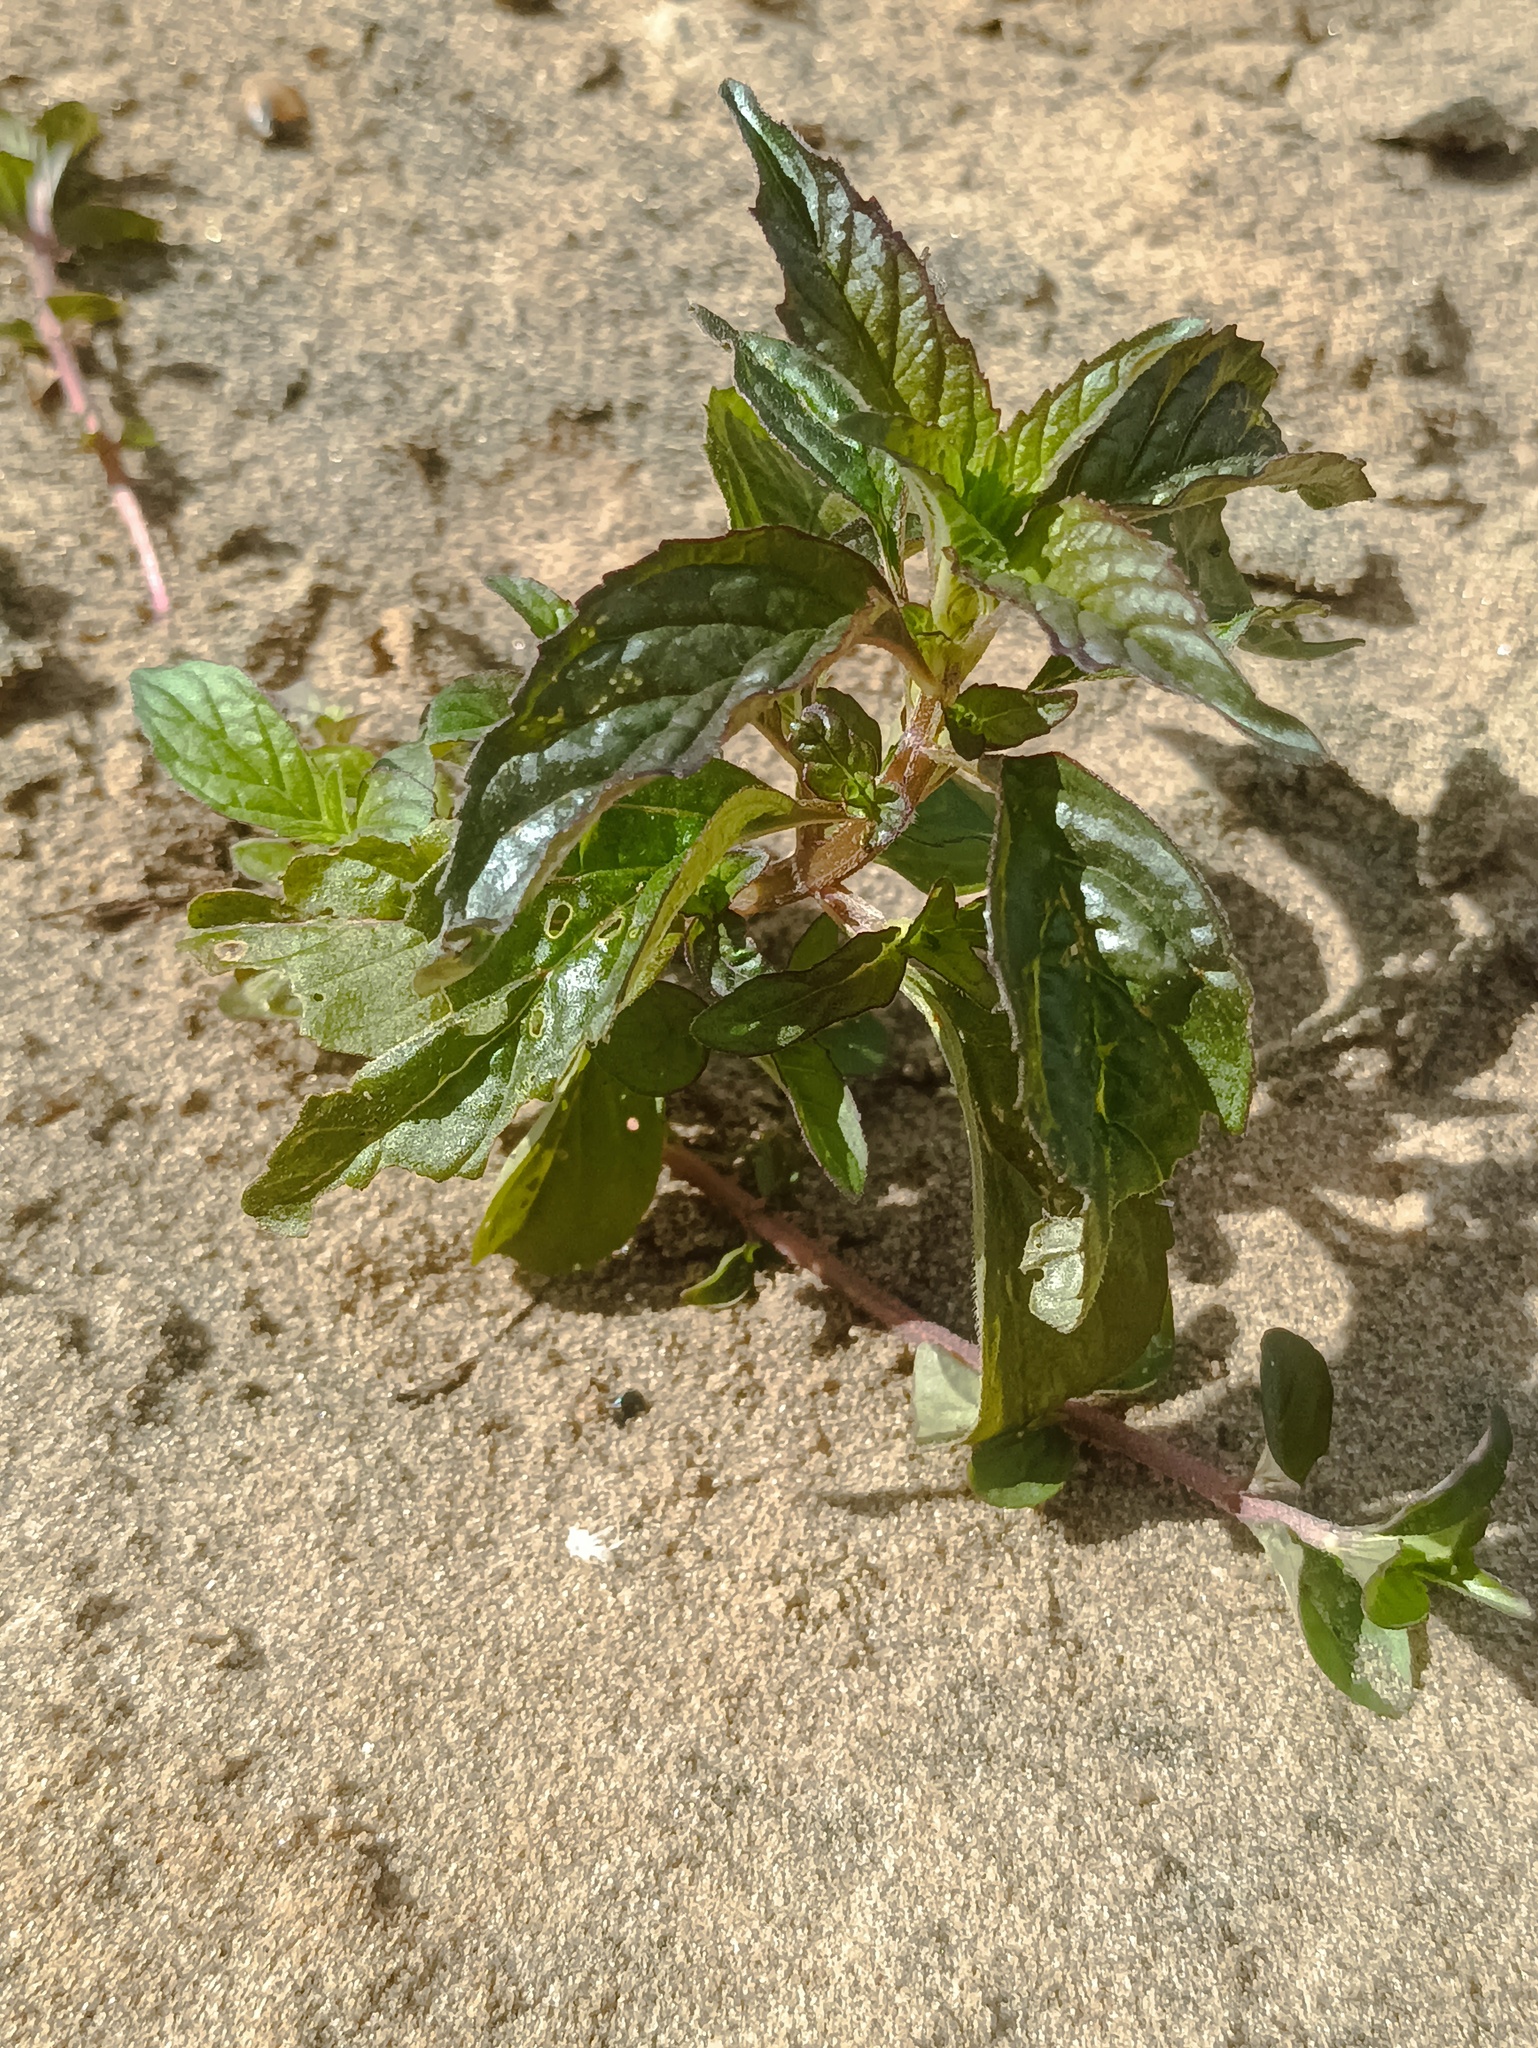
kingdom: Plantae
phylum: Tracheophyta
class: Magnoliopsida
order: Lamiales
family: Lamiaceae
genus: Mentha
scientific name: Mentha arvensis
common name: Corn mint
